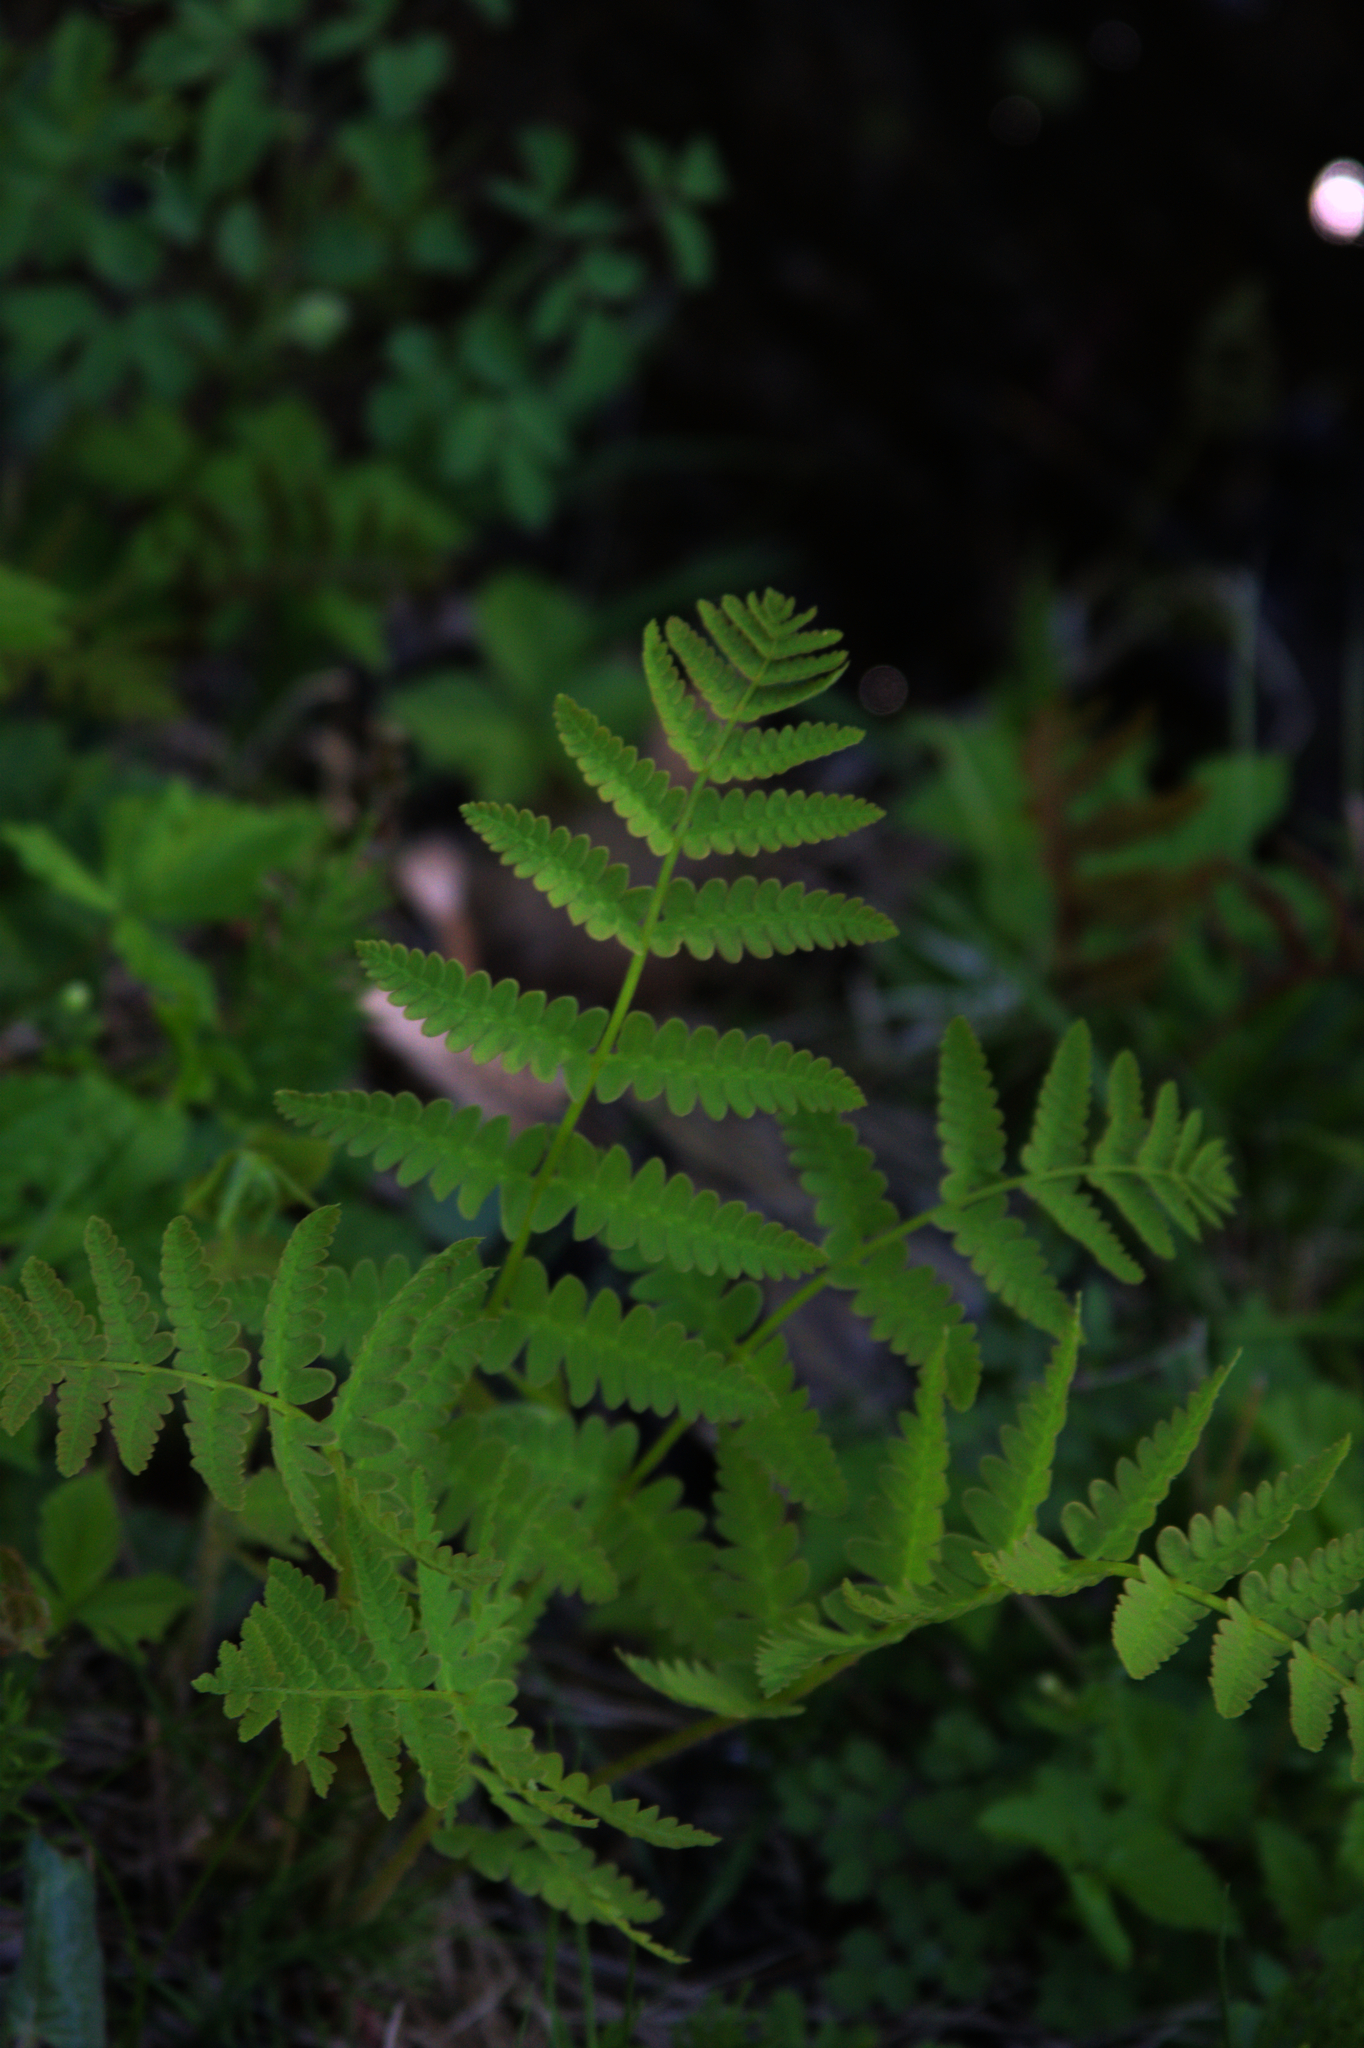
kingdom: Plantae
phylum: Tracheophyta
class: Polypodiopsida
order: Osmundales
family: Osmundaceae
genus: Claytosmunda
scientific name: Claytosmunda claytoniana
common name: Clayton's fern
